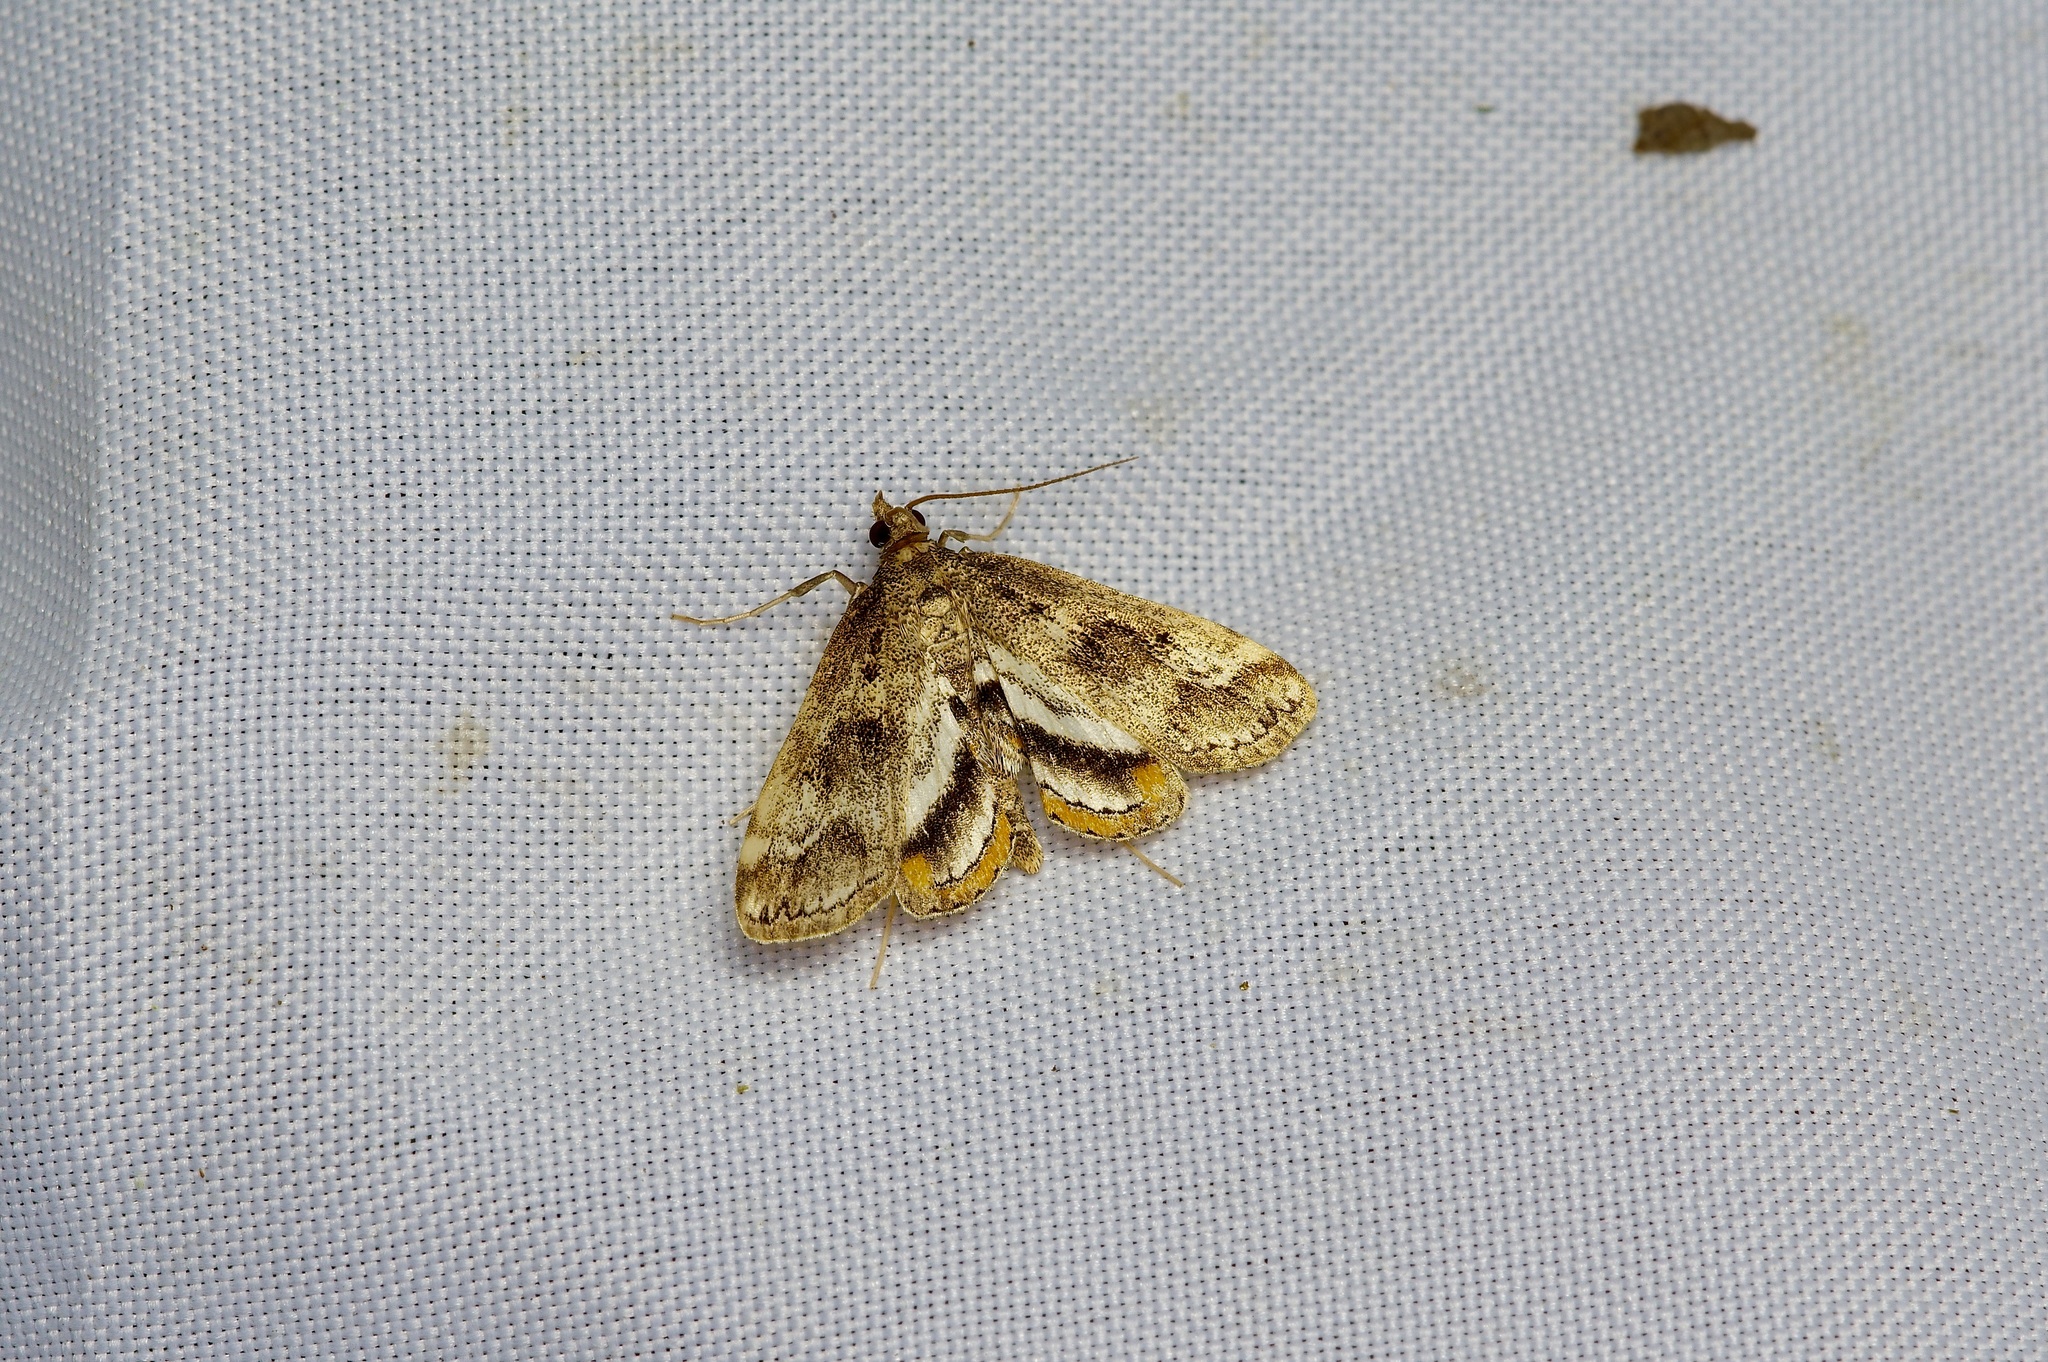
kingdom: Animalia
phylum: Arthropoda
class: Insecta
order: Lepidoptera
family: Crambidae
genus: Parapoynx
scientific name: Parapoynx obscuralis
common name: American china-mark
